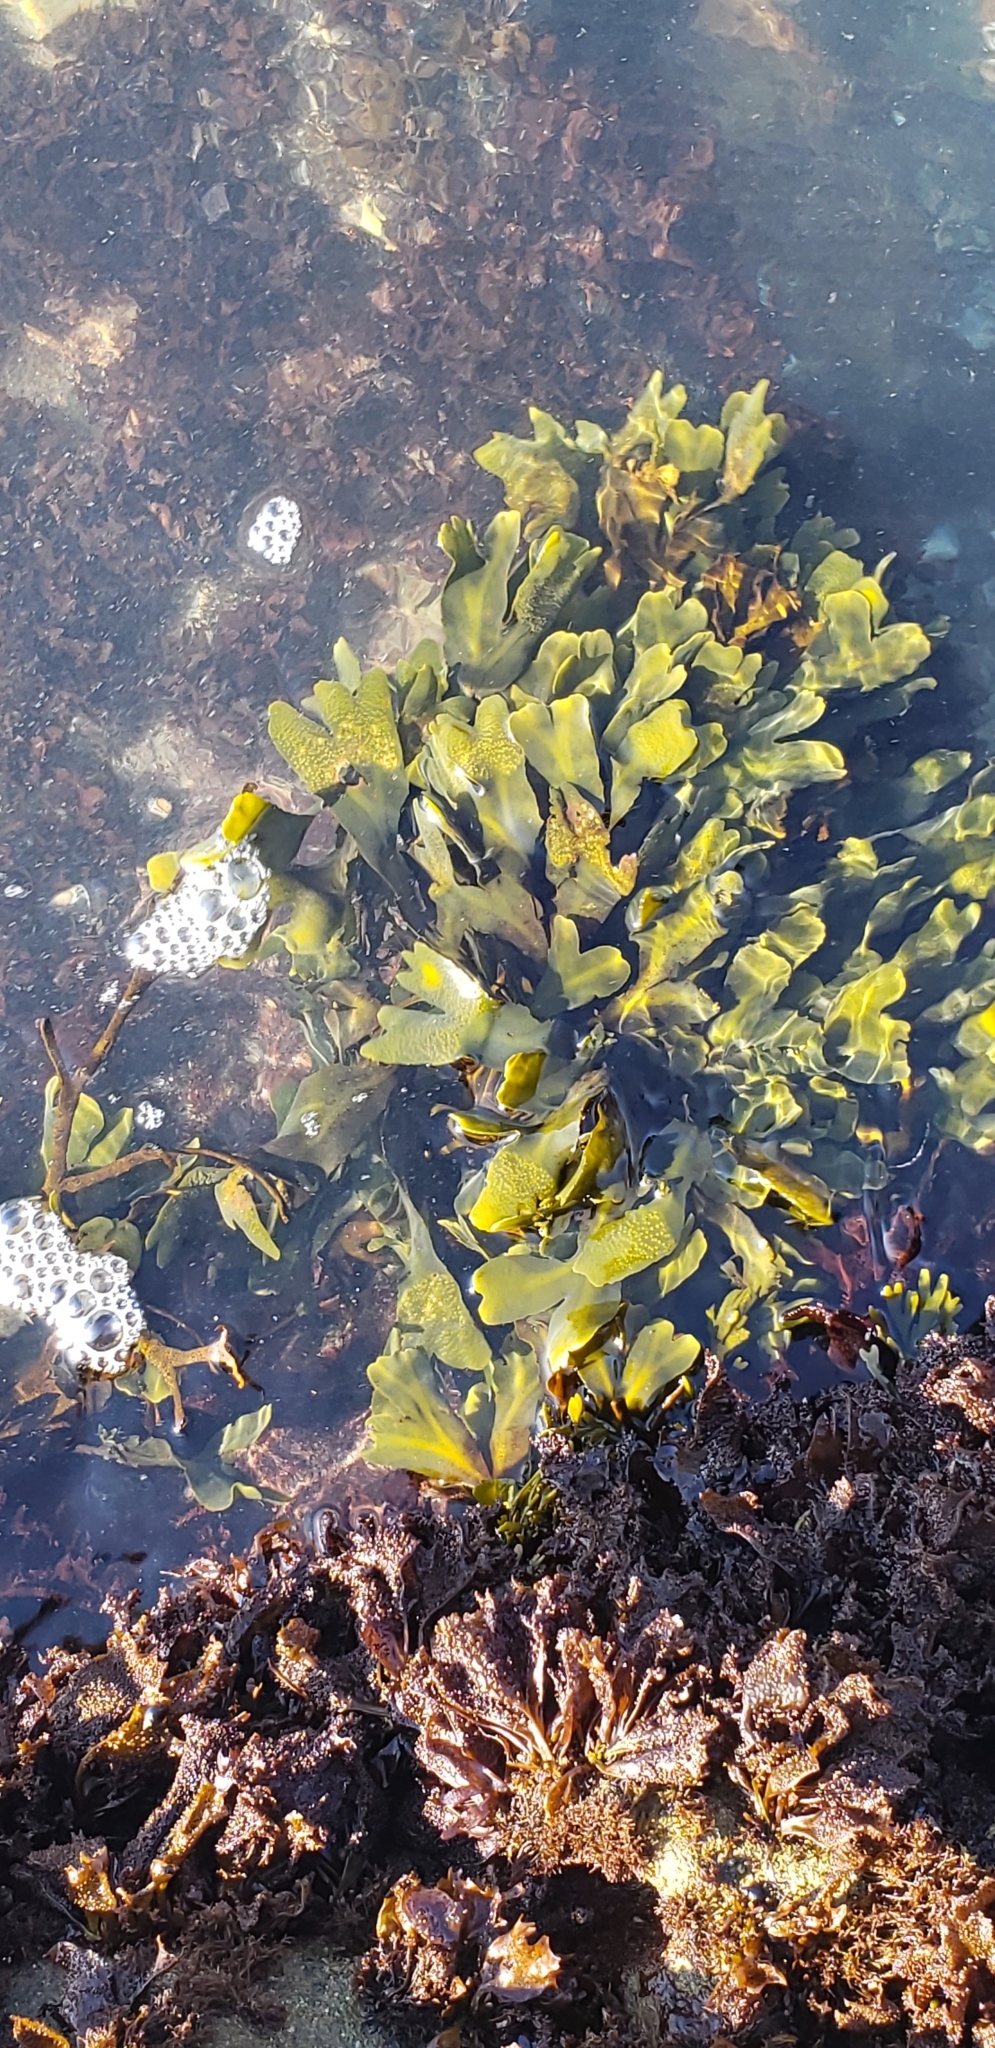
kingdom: Chromista
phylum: Ochrophyta
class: Phaeophyceae
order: Fucales
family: Fucaceae
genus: Fucus
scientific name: Fucus distichus
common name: Rockweed
